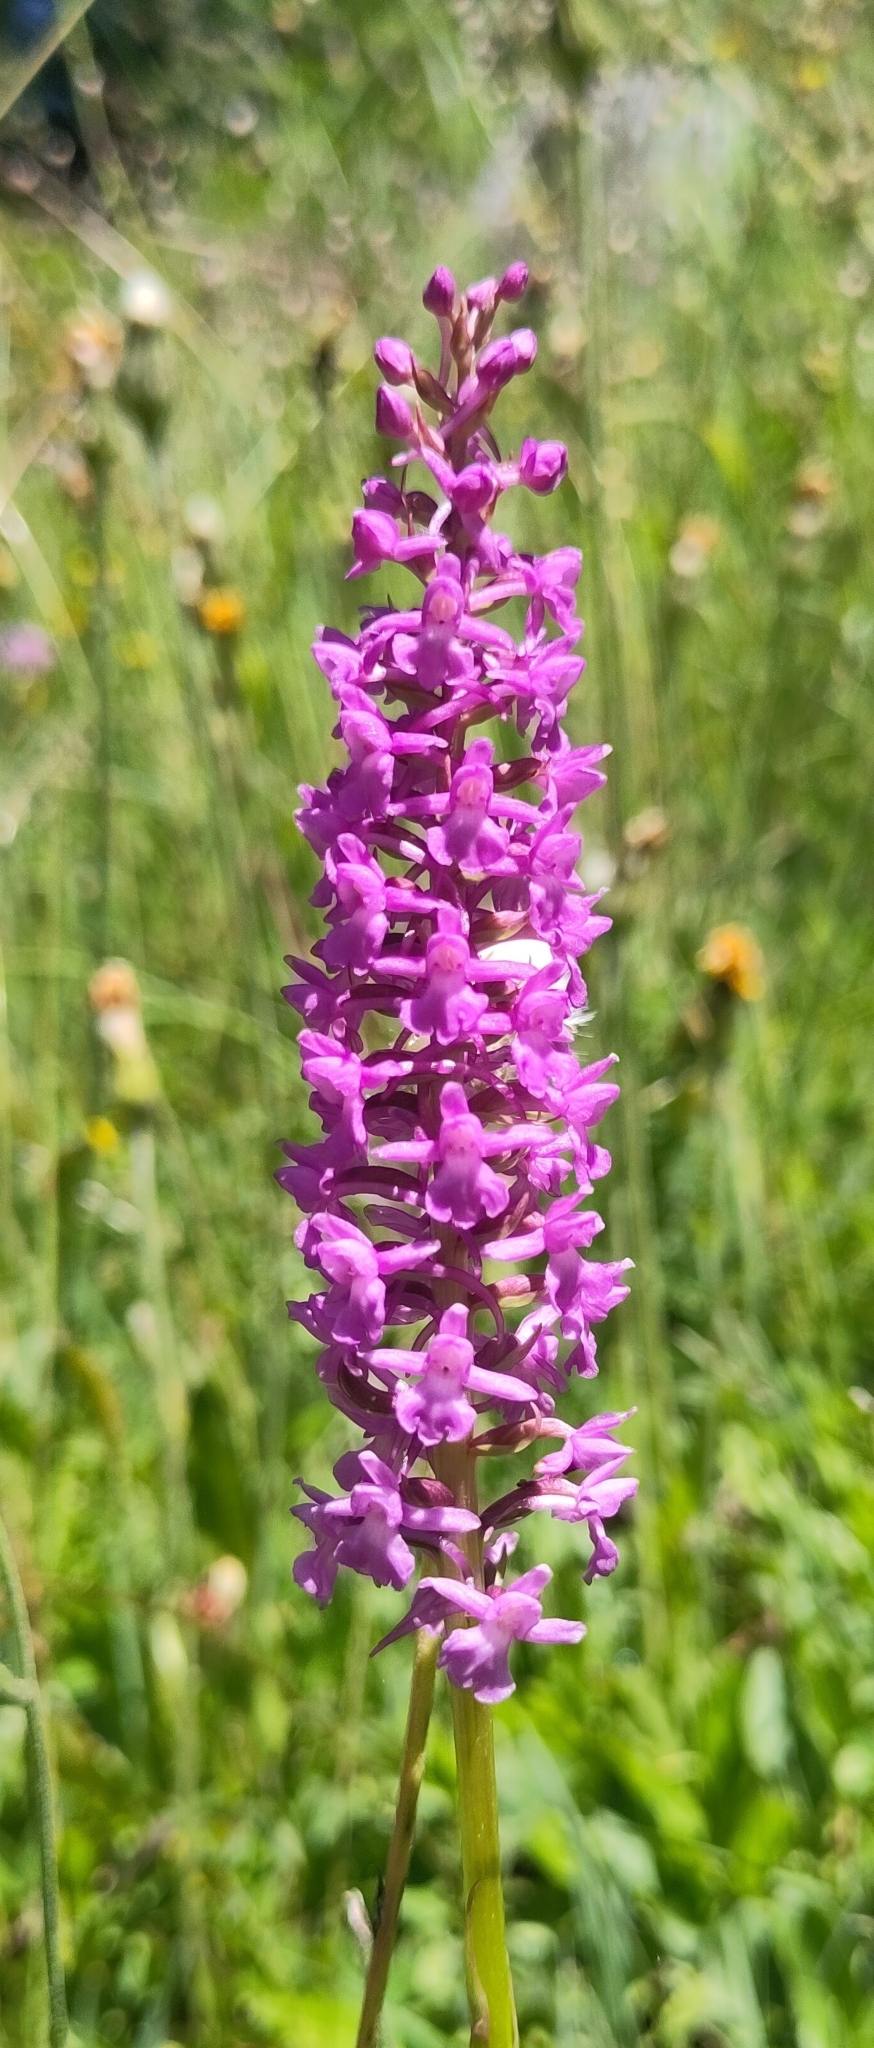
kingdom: Plantae
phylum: Tracheophyta
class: Liliopsida
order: Asparagales
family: Orchidaceae
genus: Gymnadenia
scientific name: Gymnadenia conopsea
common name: Fragrant orchid
